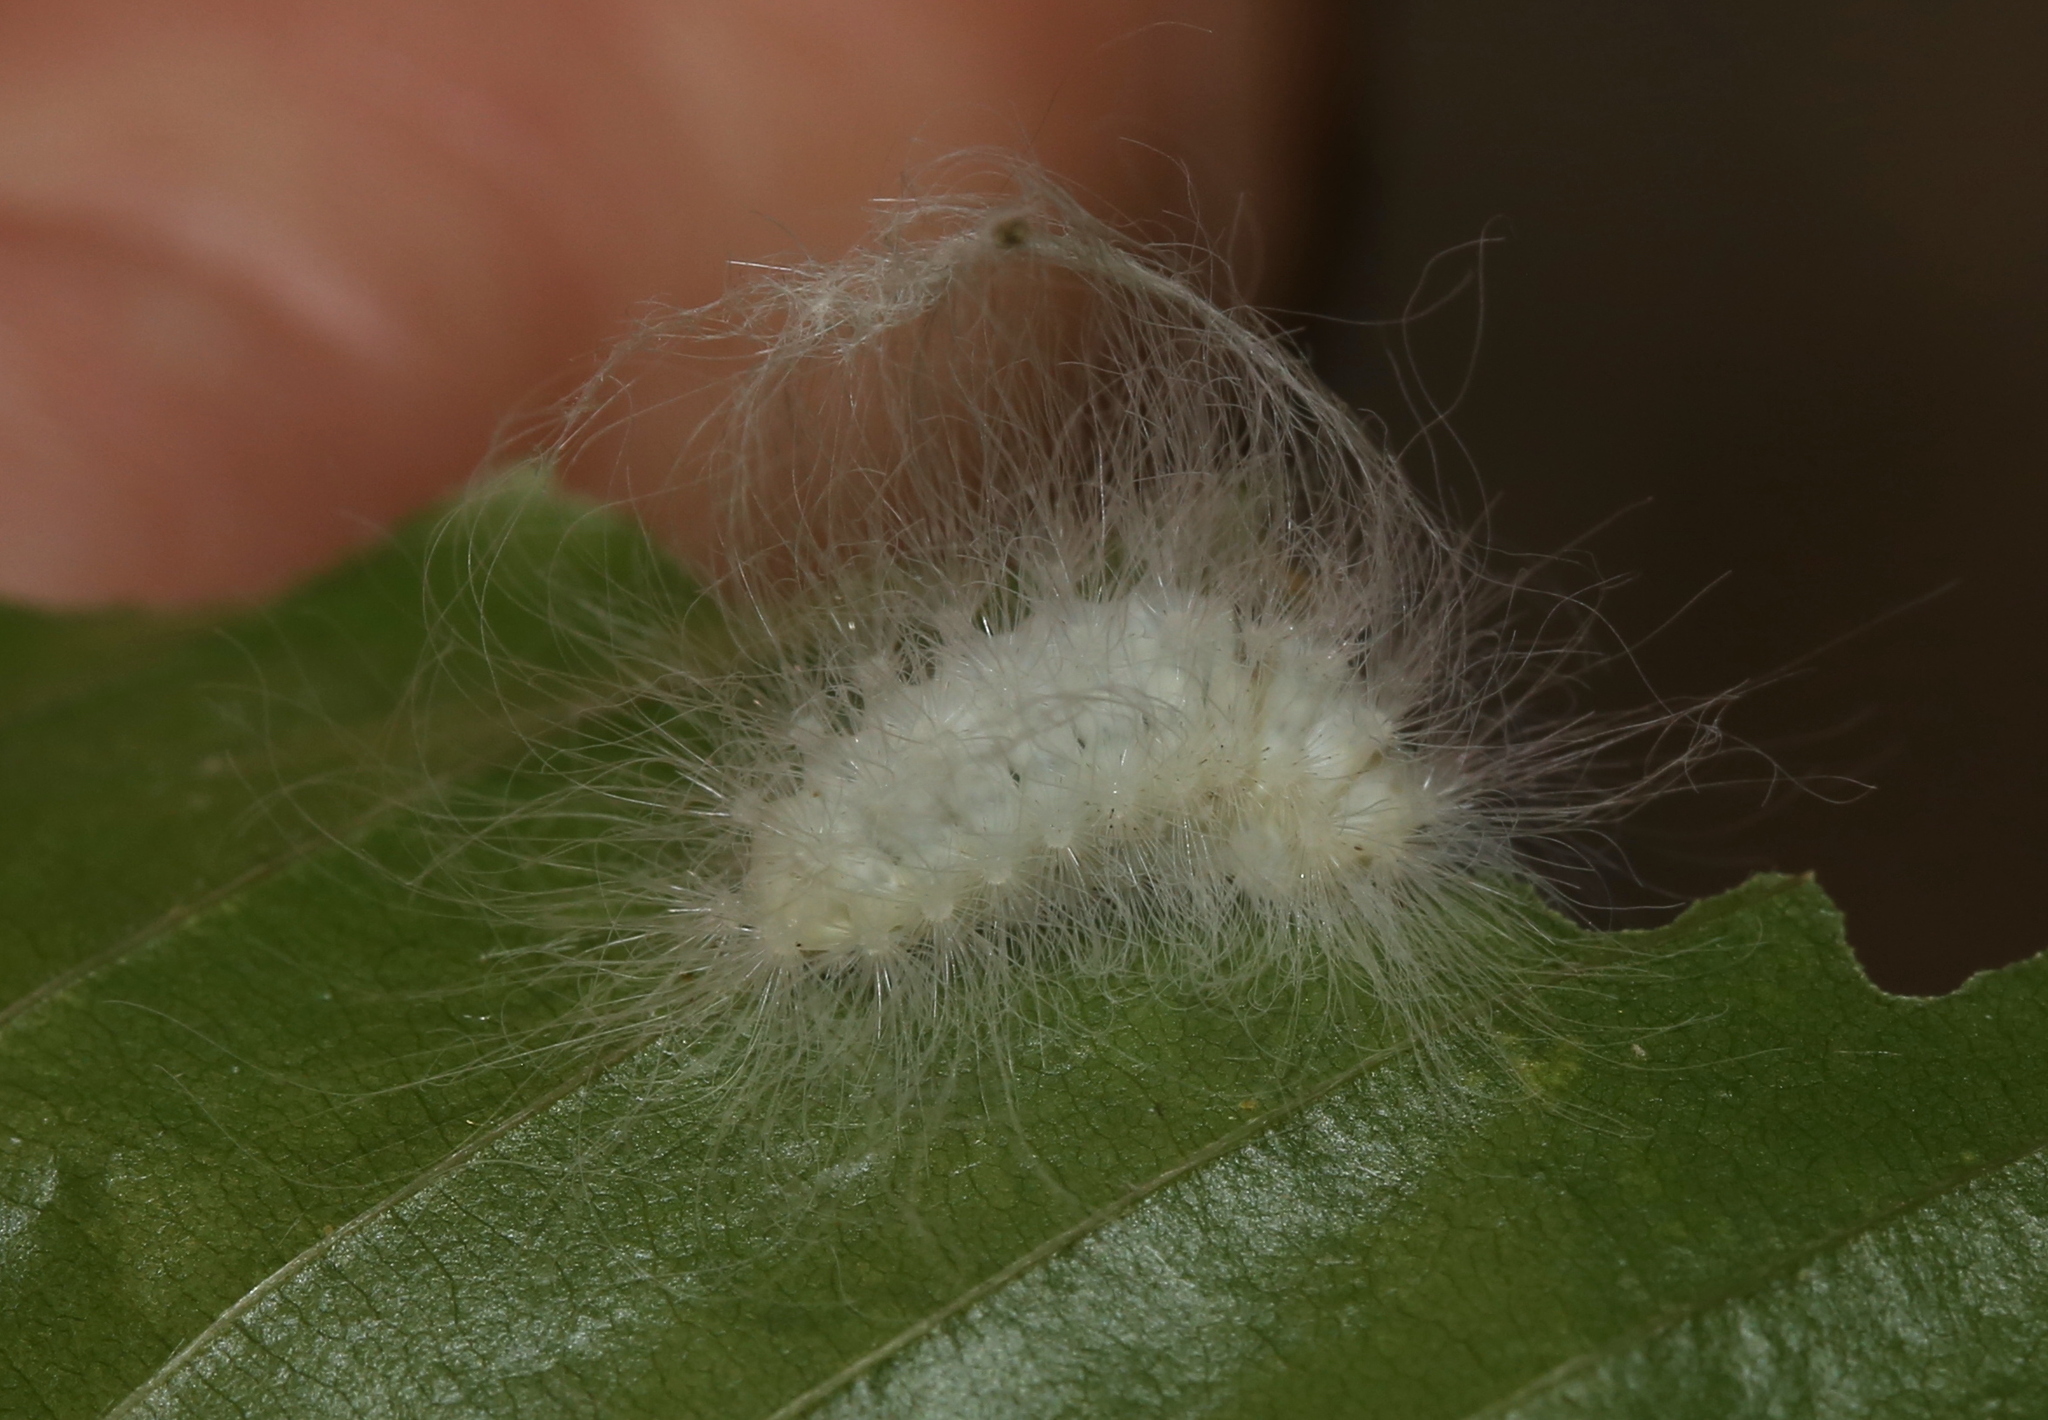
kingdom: Animalia
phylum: Arthropoda
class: Insecta
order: Lepidoptera
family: Megalopygidae
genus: Megalopyge
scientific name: Megalopyge crispata
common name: Black-waved flannel moth
